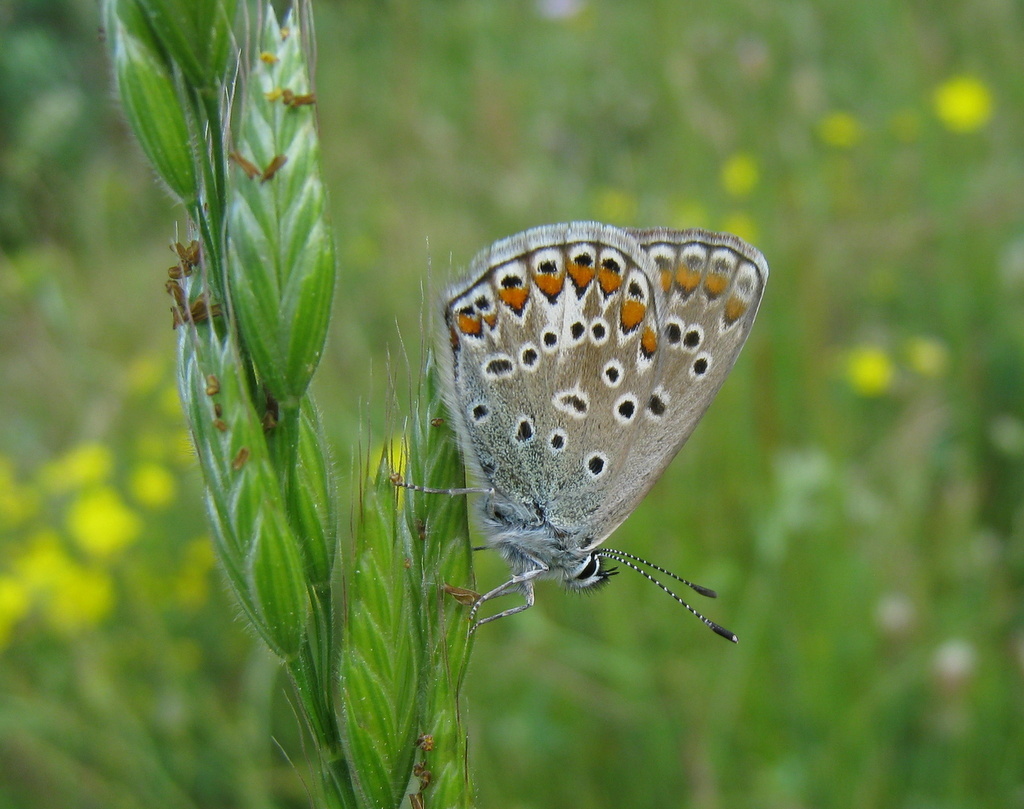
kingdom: Animalia
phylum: Arthropoda
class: Insecta
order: Lepidoptera
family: Lycaenidae
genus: Polyommatus
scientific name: Polyommatus icarus
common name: Common blue
